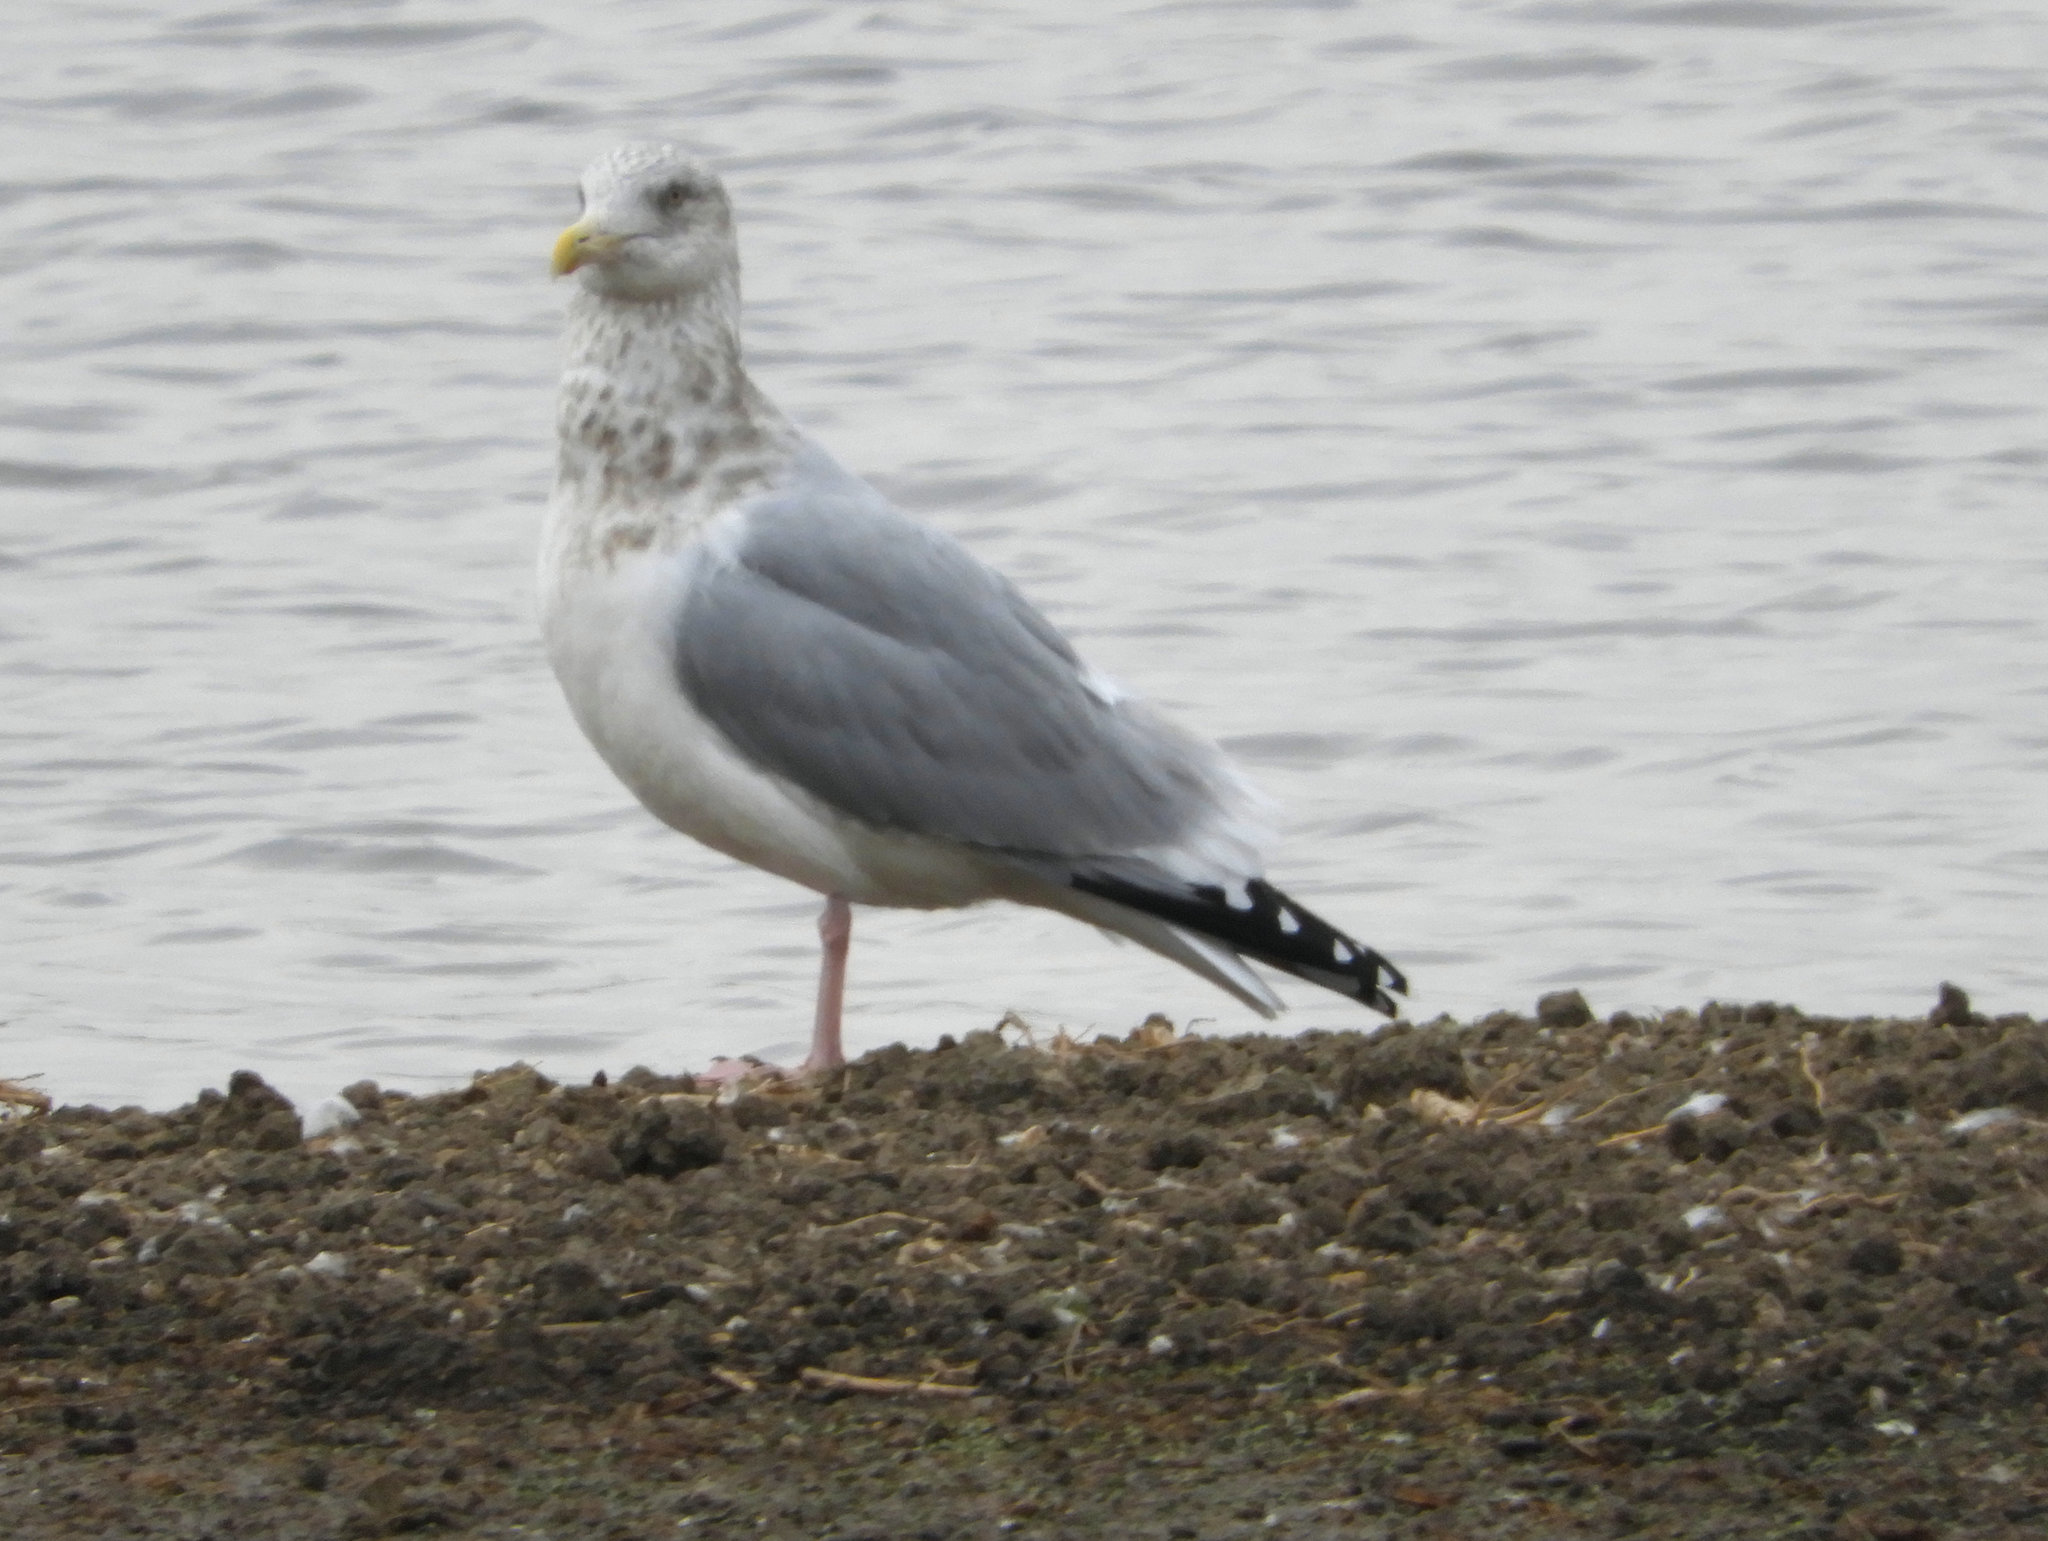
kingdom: Animalia
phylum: Chordata
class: Aves
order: Charadriiformes
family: Laridae
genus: Larus
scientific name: Larus argentatus
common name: Herring gull
